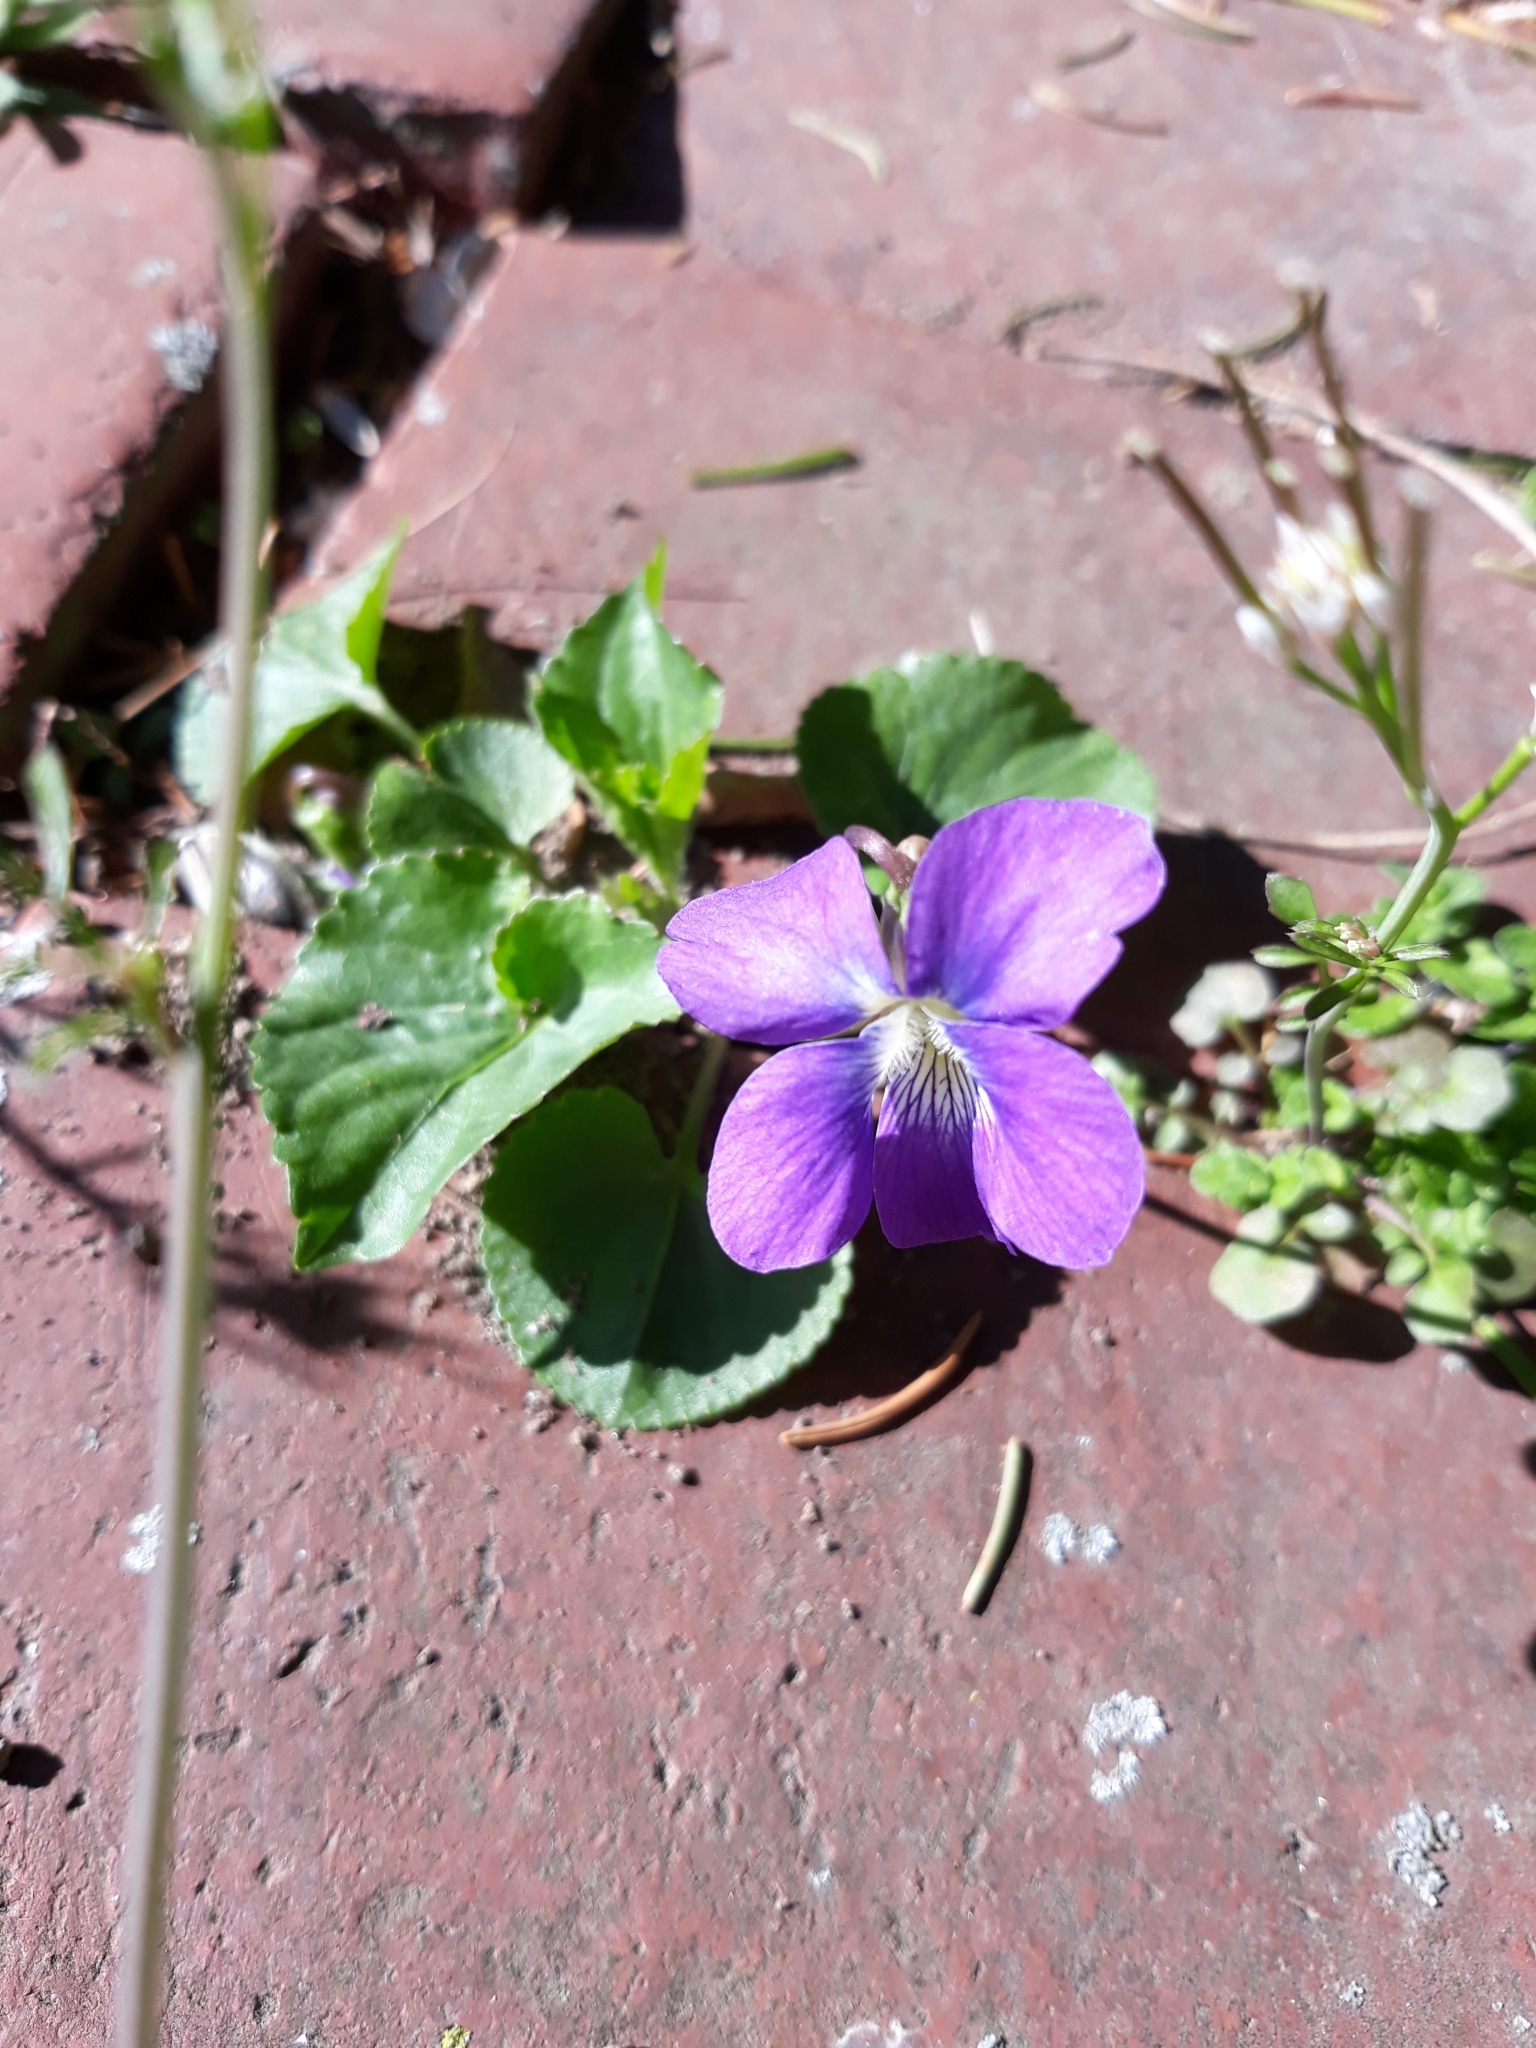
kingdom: Plantae
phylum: Tracheophyta
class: Magnoliopsida
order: Malpighiales
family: Violaceae
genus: Viola
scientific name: Viola sororia
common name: Dooryard violet
